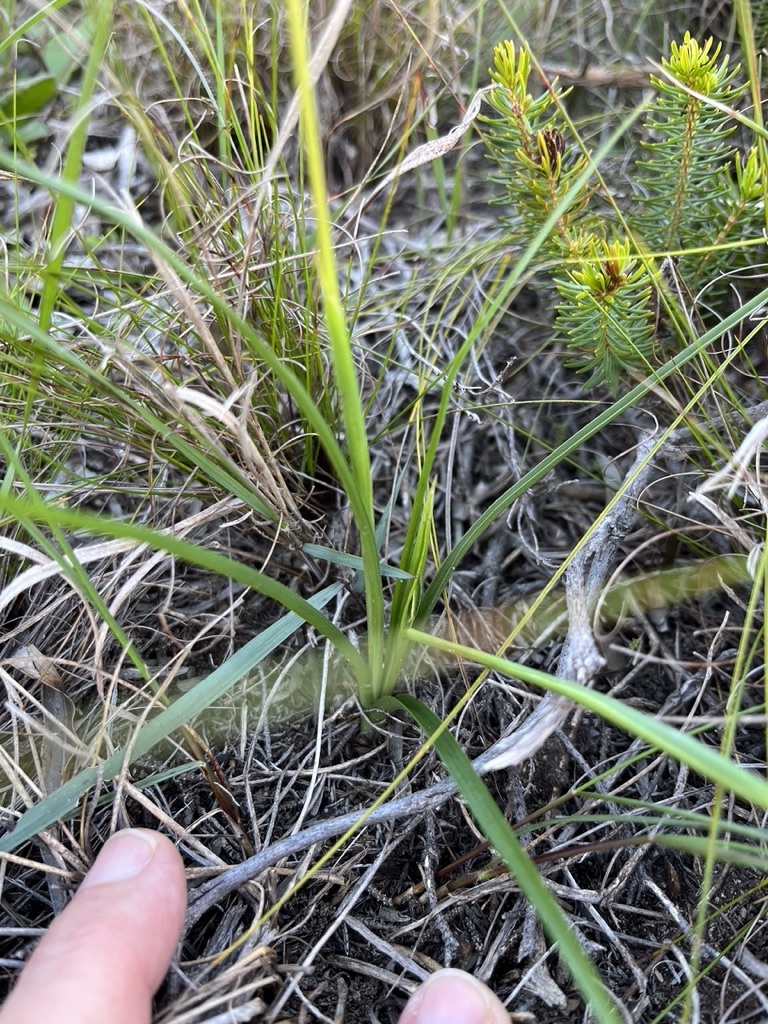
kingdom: Plantae
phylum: Tracheophyta
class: Liliopsida
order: Asparagales
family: Hypoxidaceae
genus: Pauridia
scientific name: Pauridia capensis
